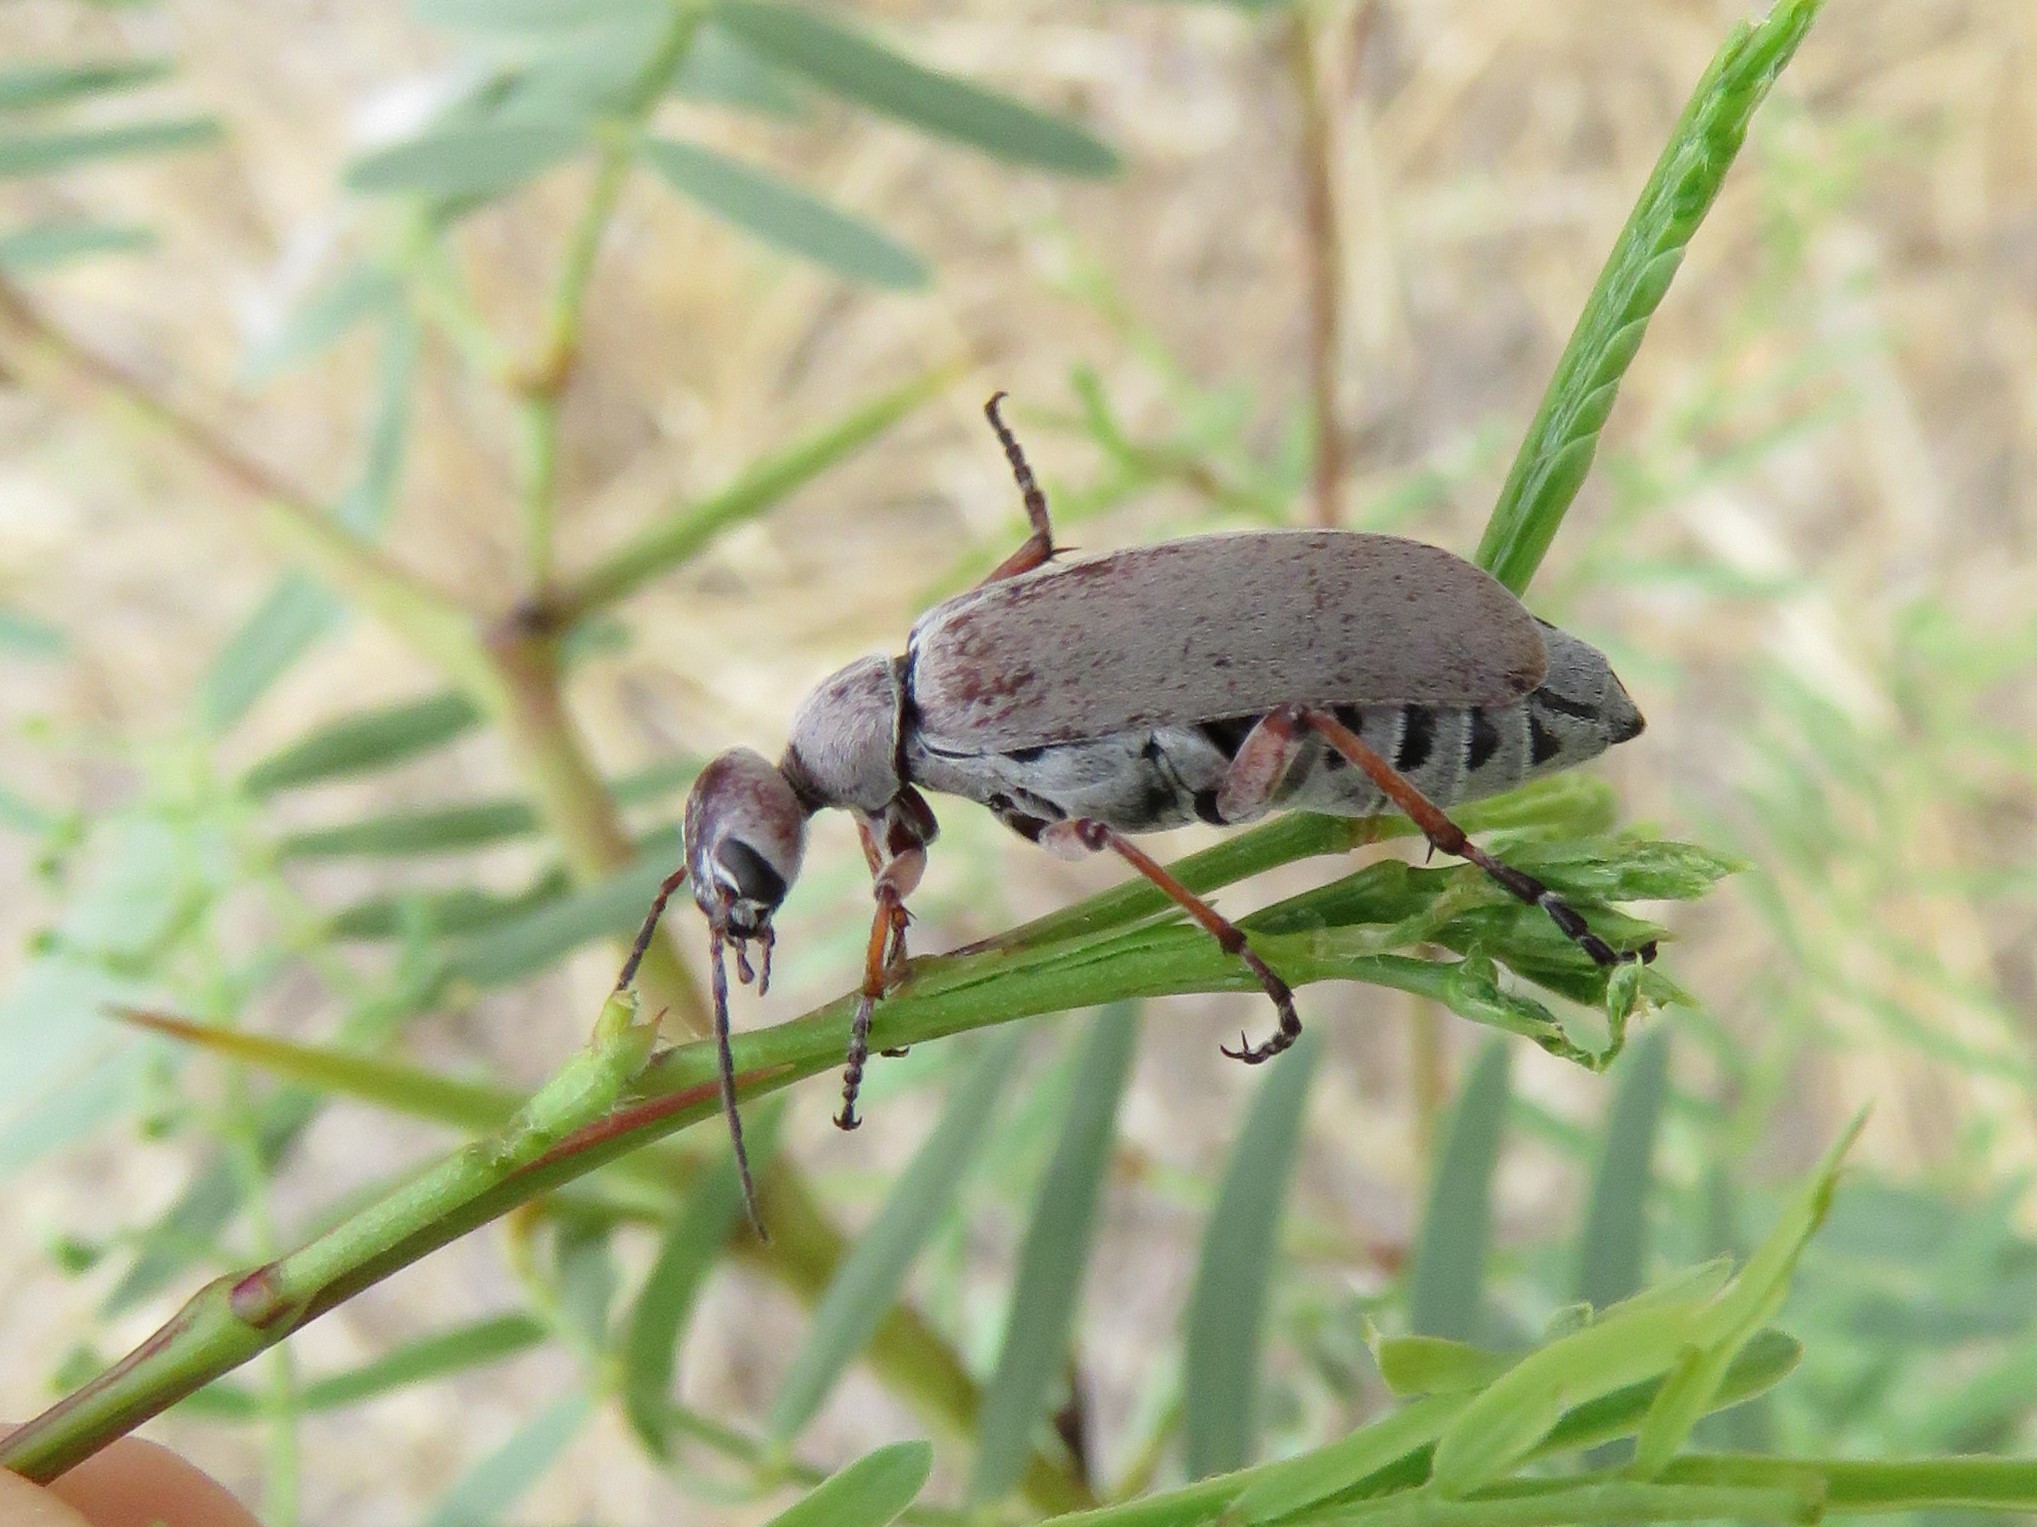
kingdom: Animalia
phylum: Arthropoda
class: Insecta
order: Coleoptera
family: Meloidae
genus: Epicauta
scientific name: Epicauta nigritarsis
